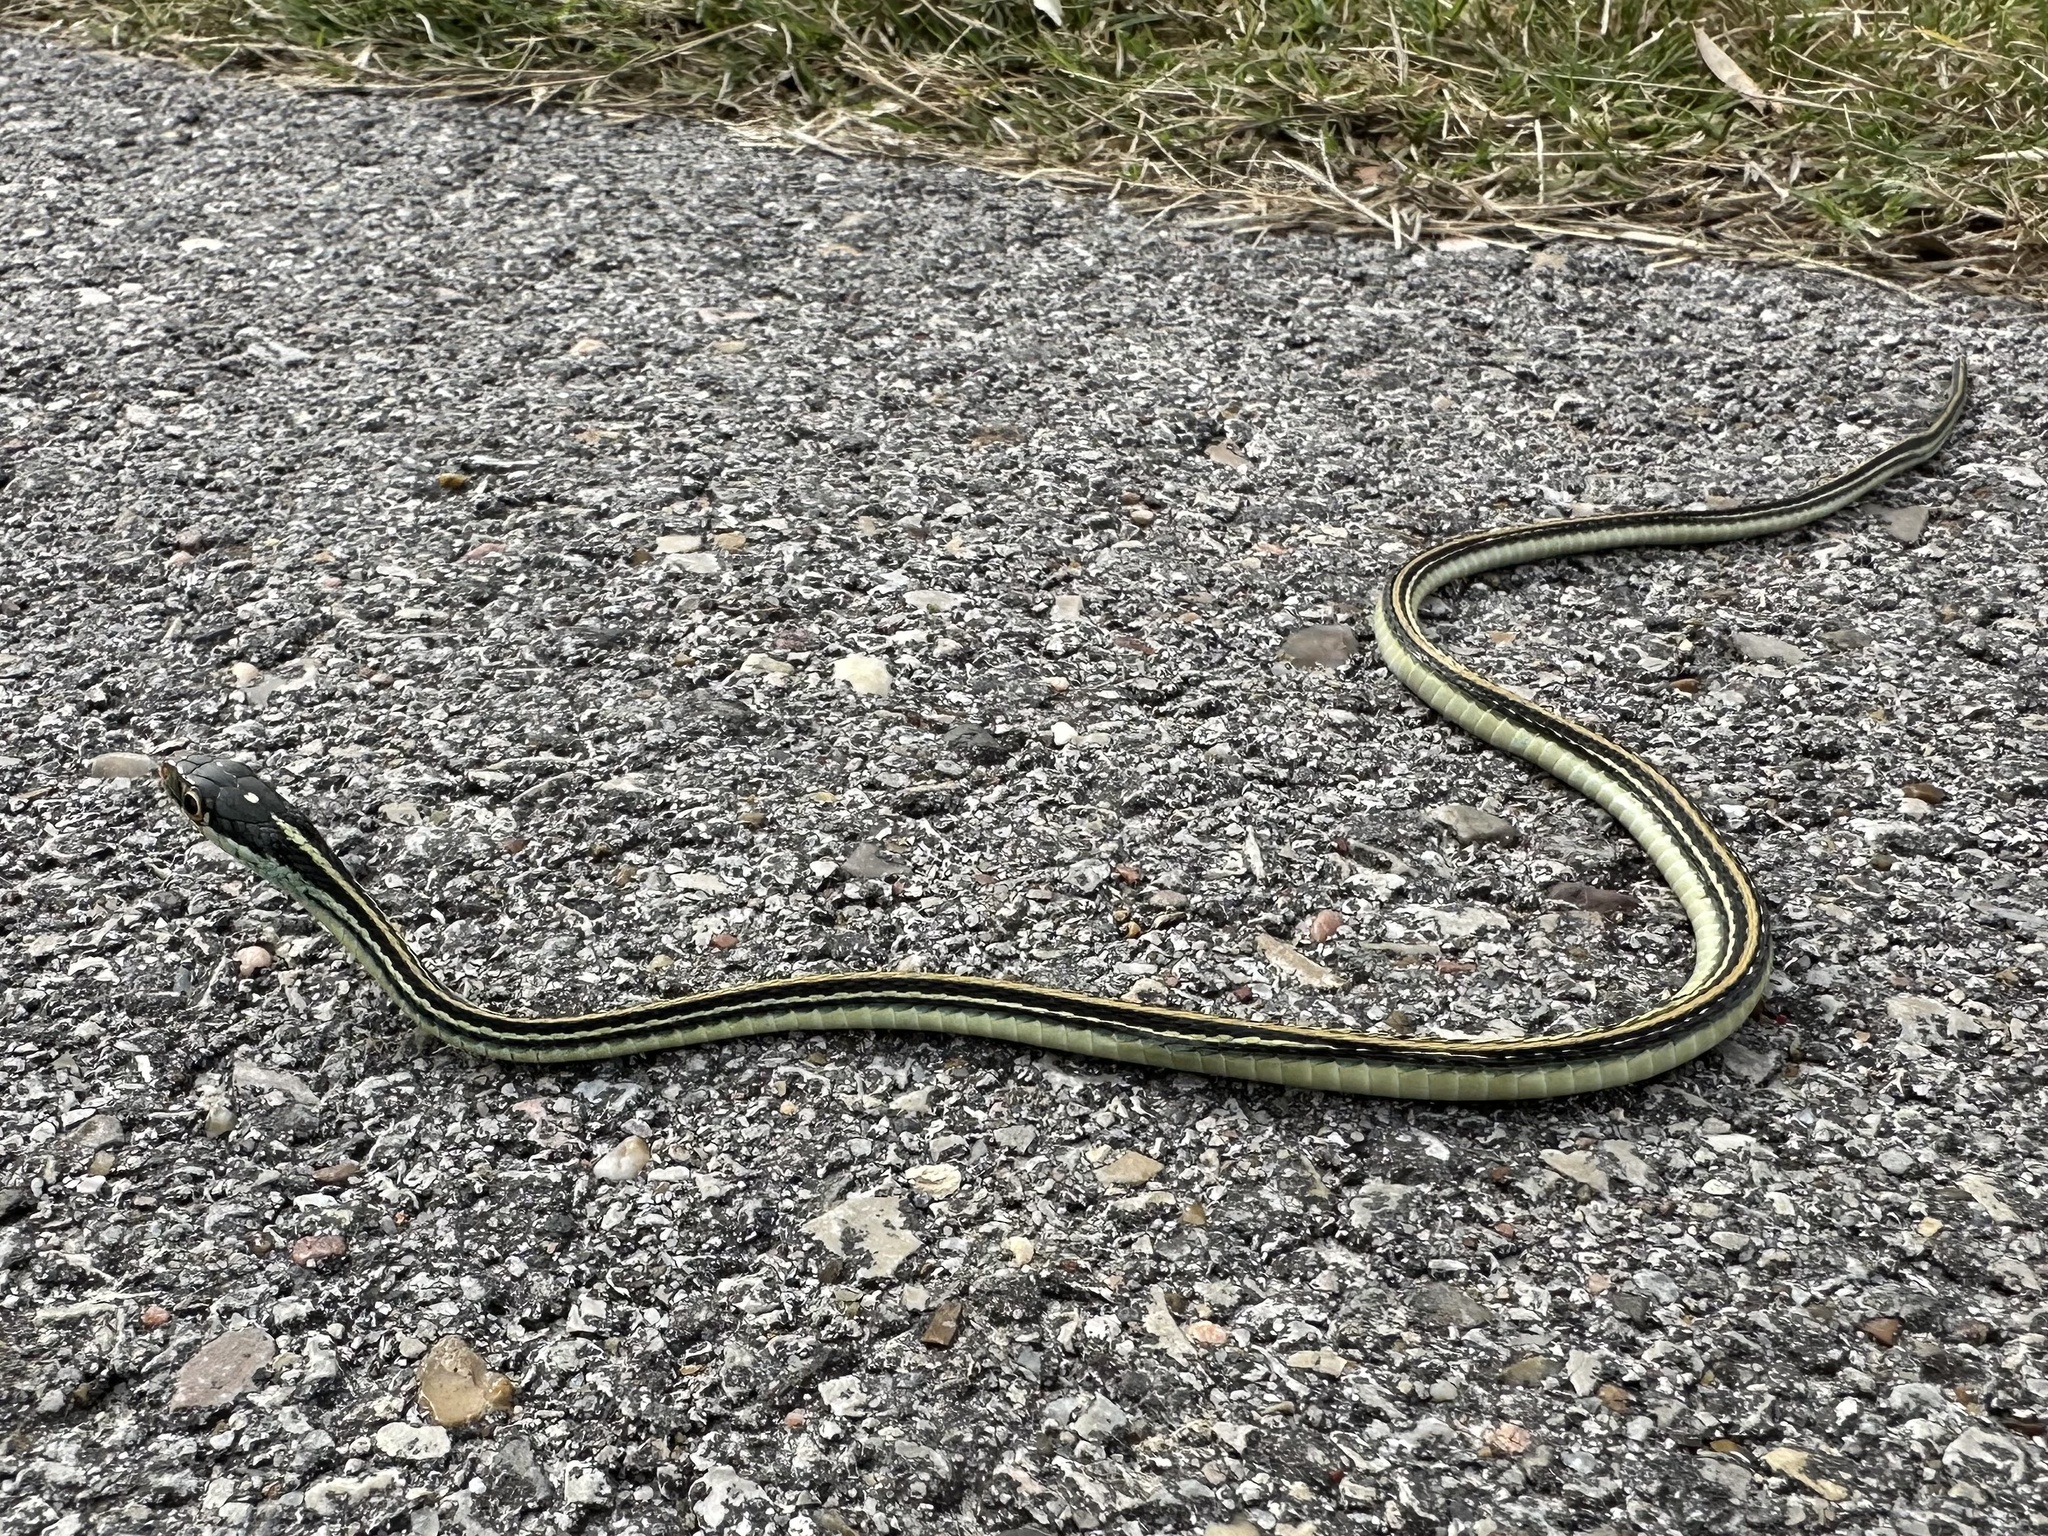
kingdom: Animalia
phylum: Chordata
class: Squamata
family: Colubridae
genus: Thamnophis
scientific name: Thamnophis proximus
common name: Western ribbon snake
